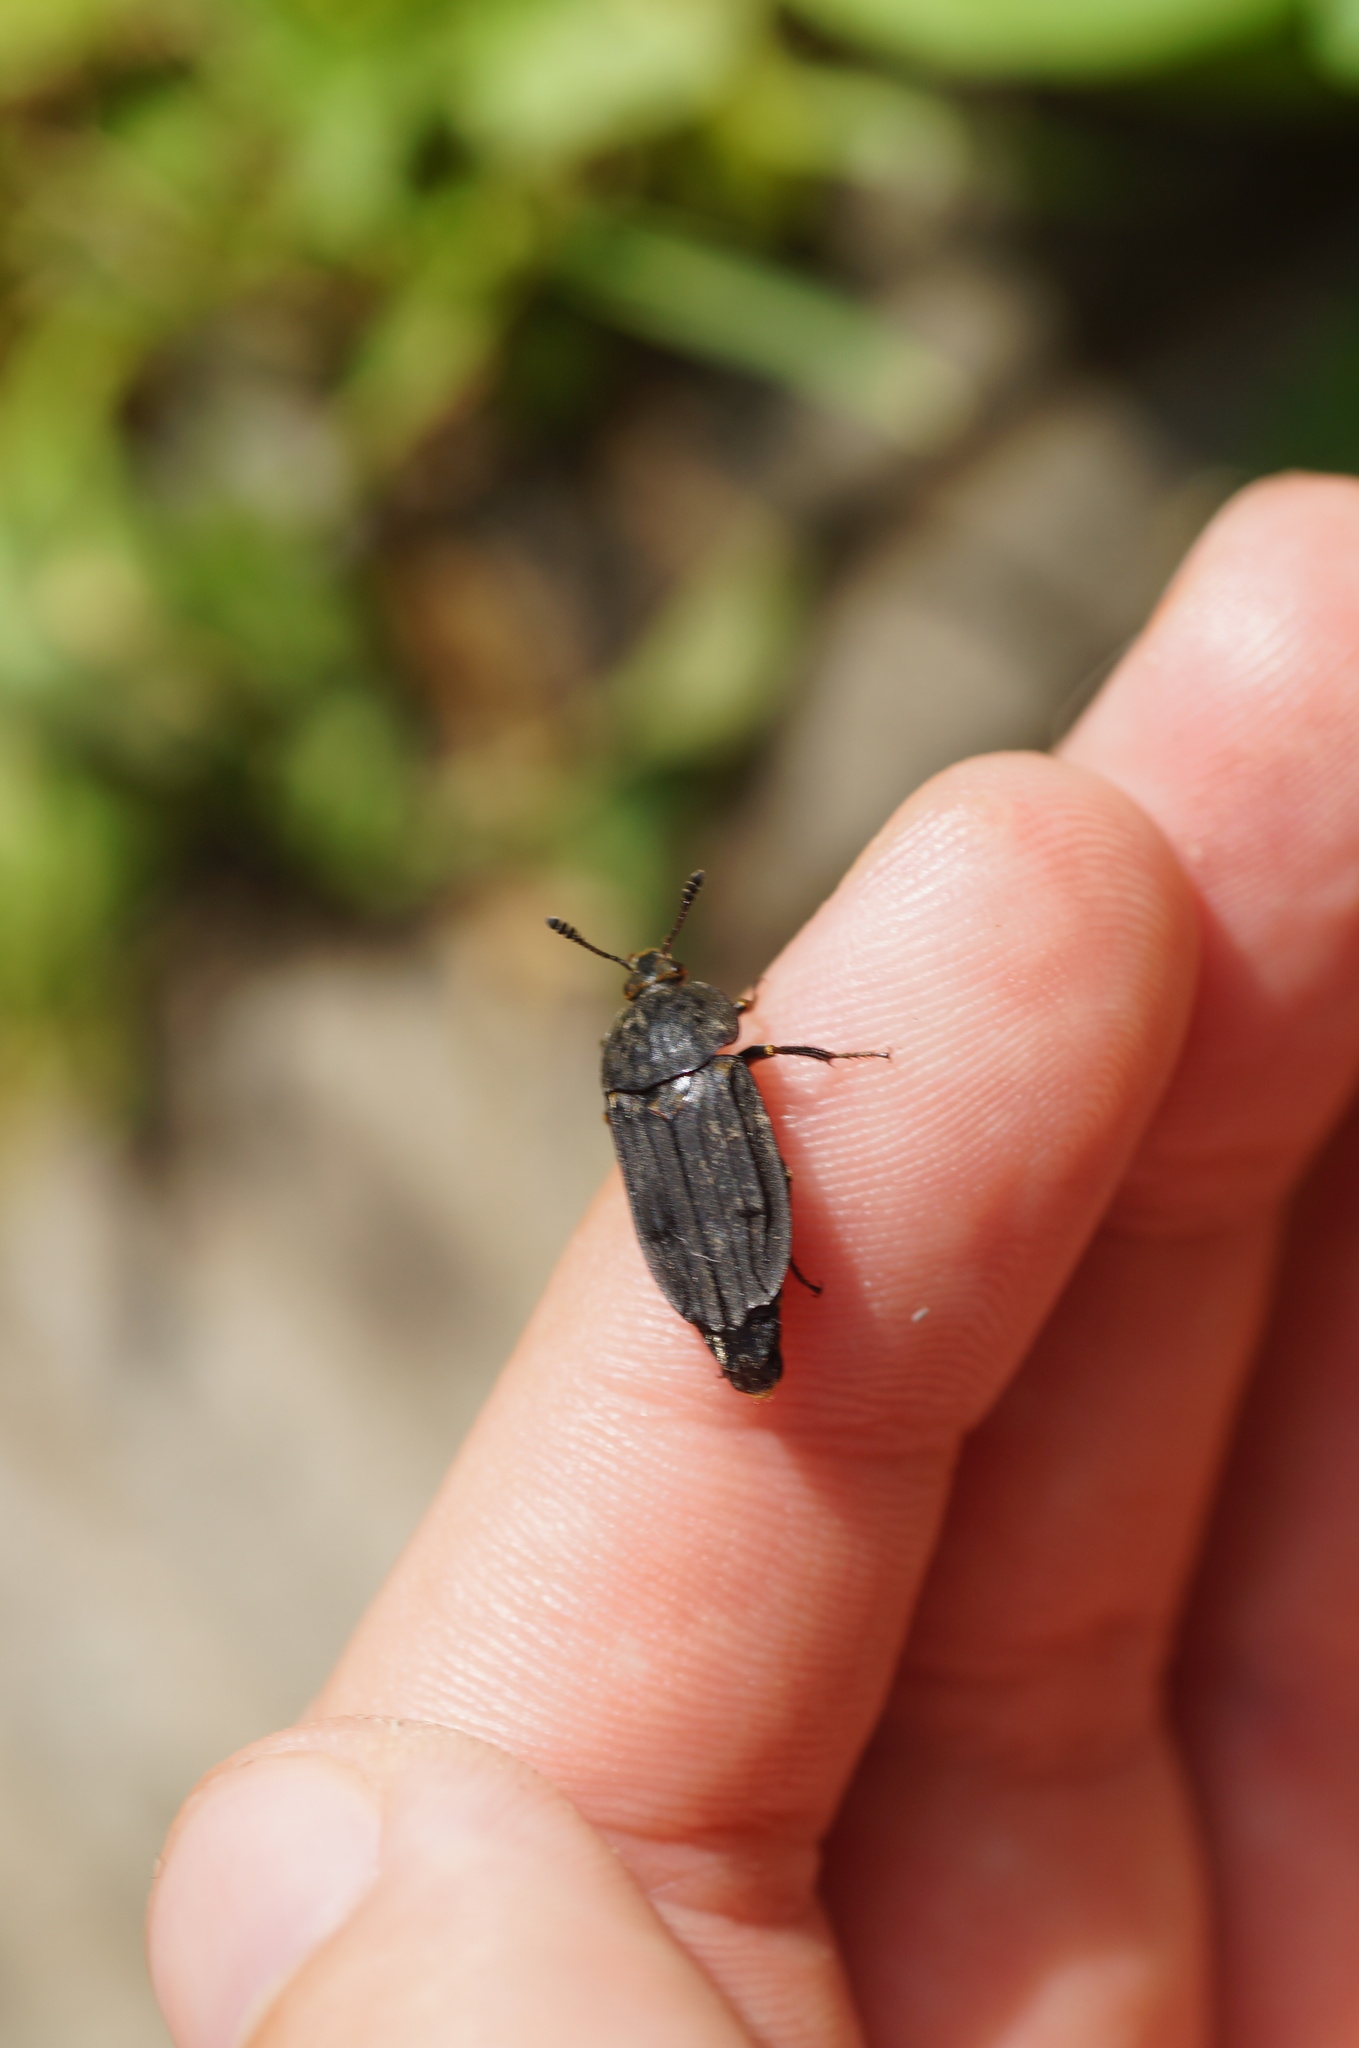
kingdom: Animalia
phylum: Arthropoda
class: Insecta
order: Coleoptera
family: Staphylinidae
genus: Thanatophilus
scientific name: Thanatophilus sinuatus
